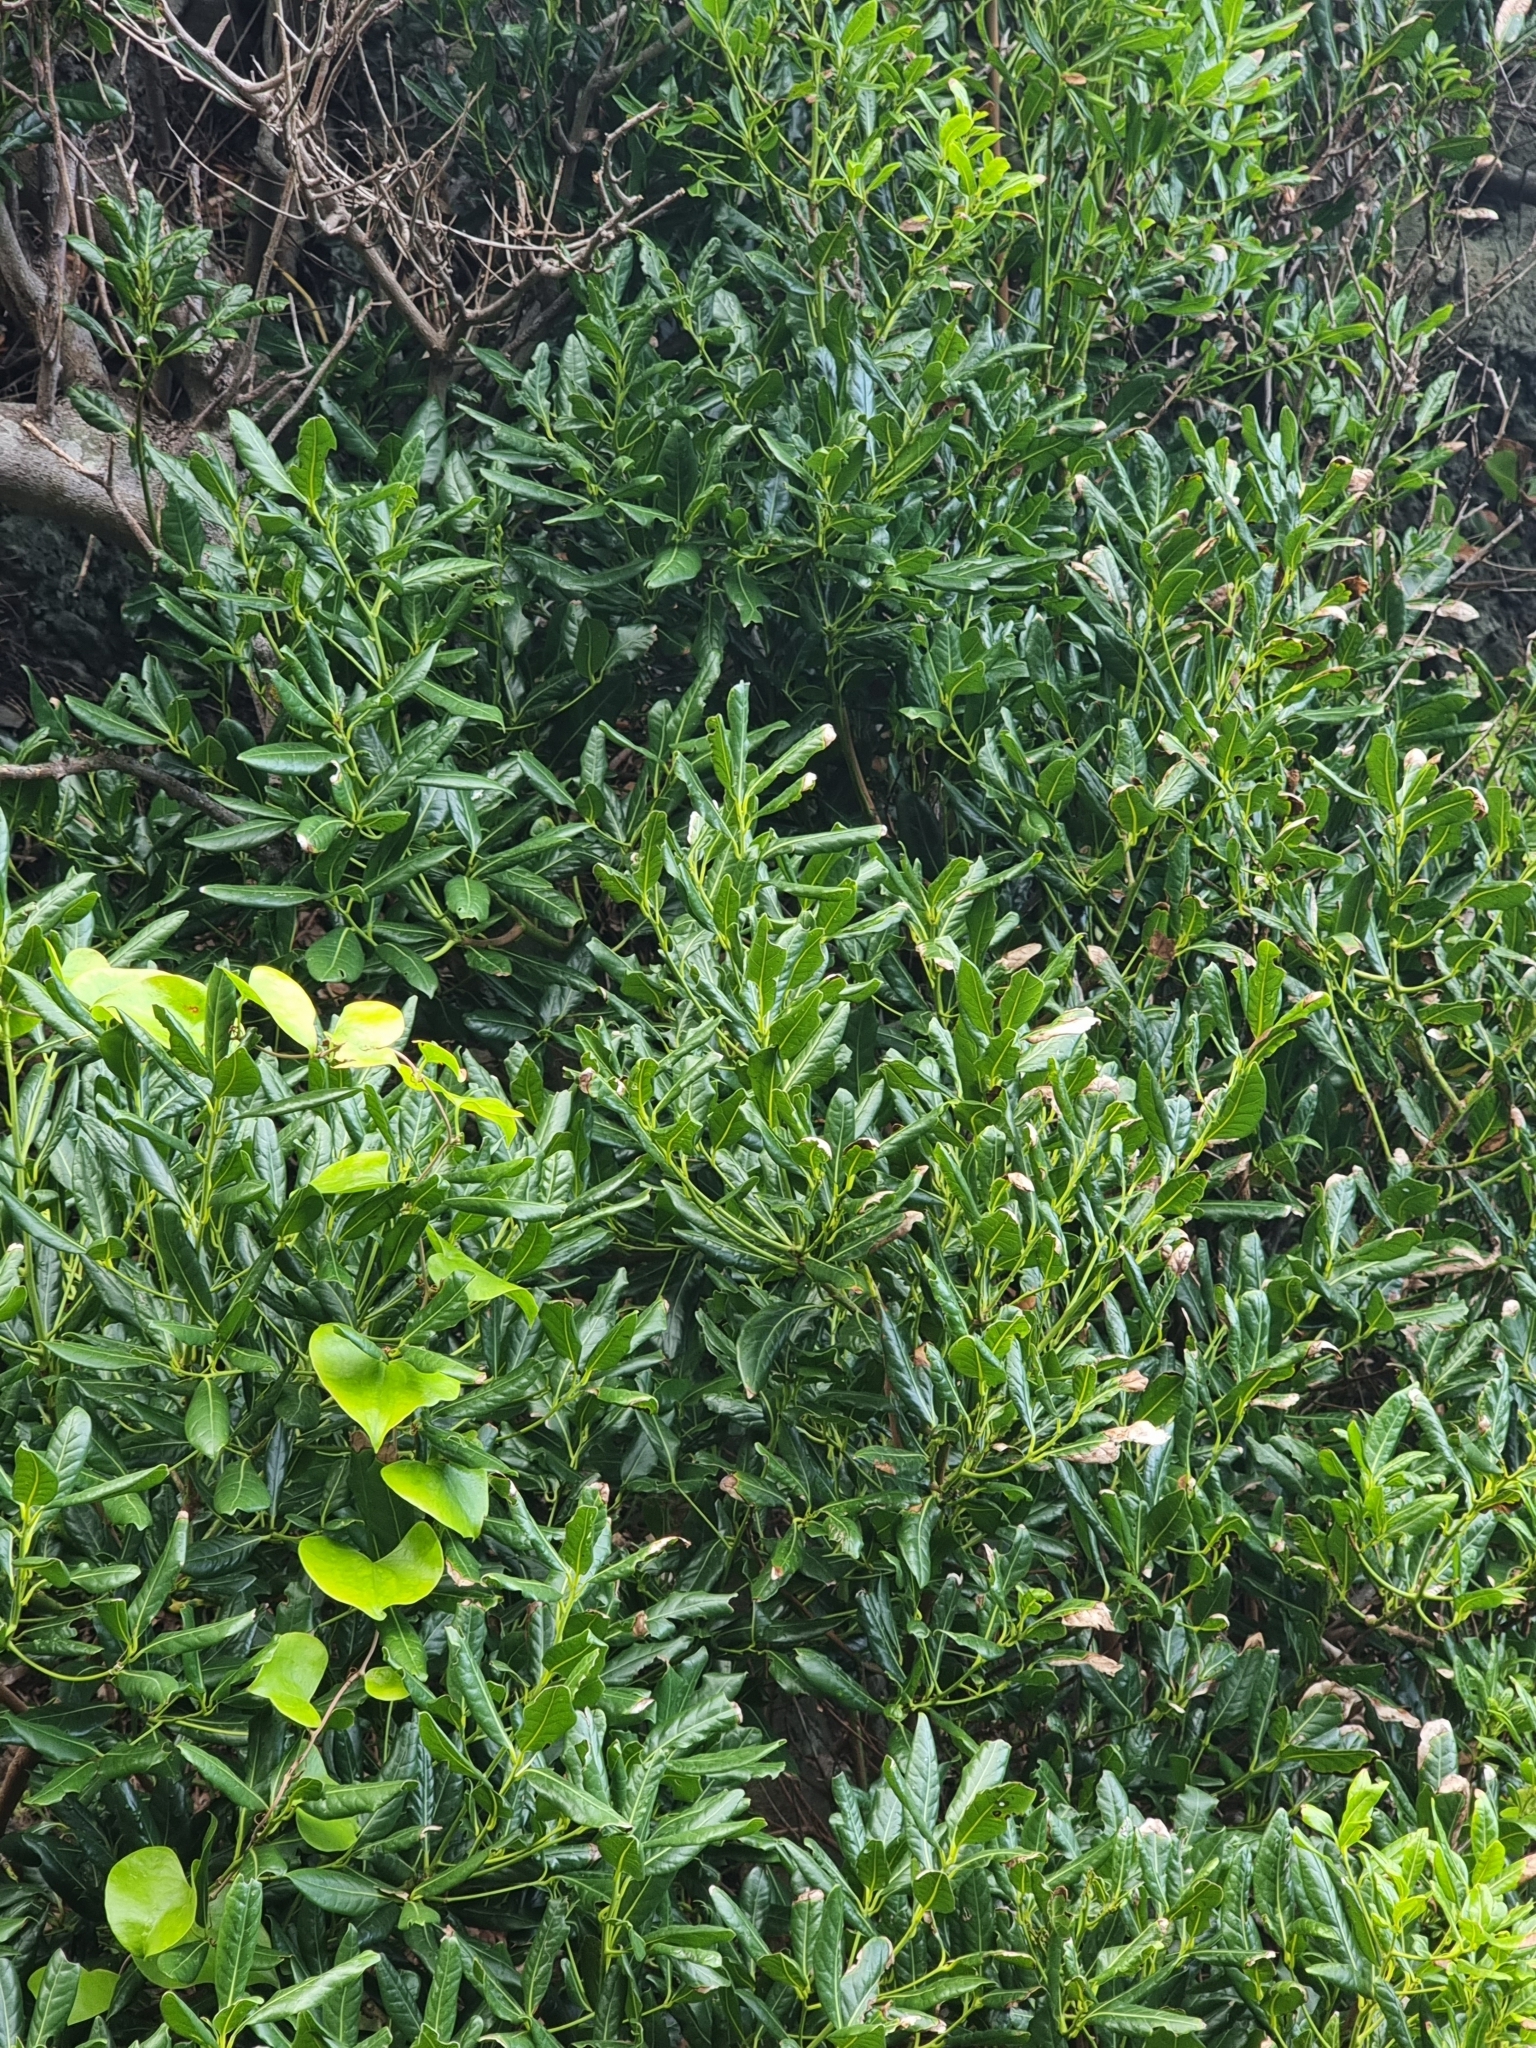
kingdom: Plantae
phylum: Tracheophyta
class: Magnoliopsida
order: Laurales
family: Lauraceae
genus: Apollonias
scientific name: Apollonias barbujana
